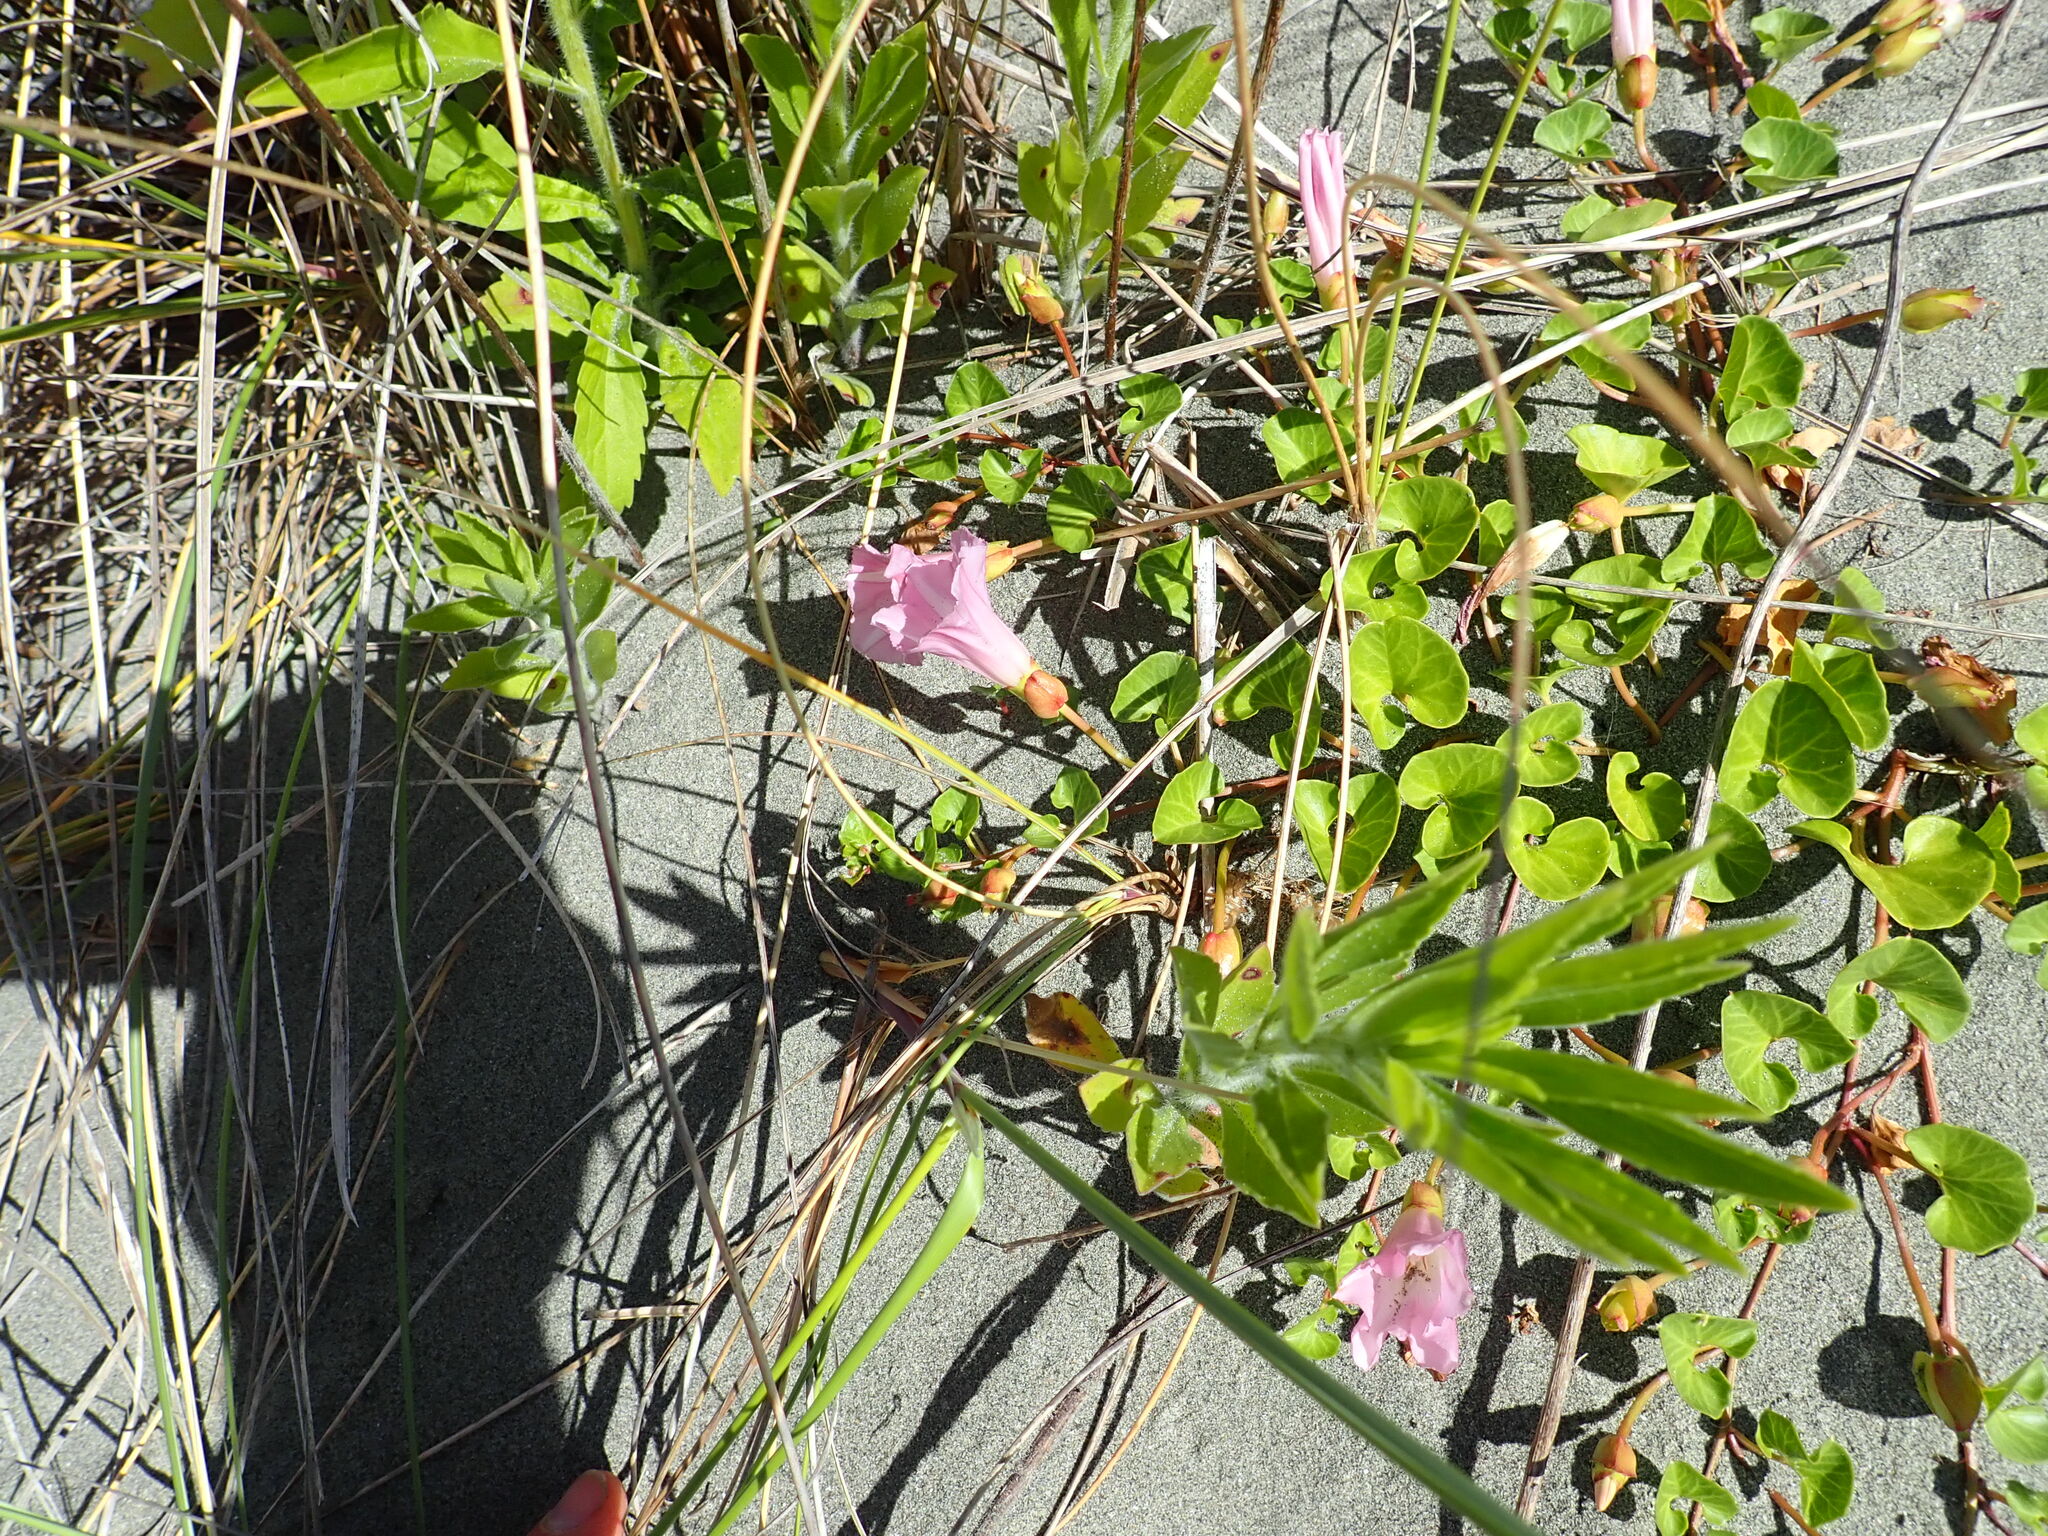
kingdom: Plantae
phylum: Tracheophyta
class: Magnoliopsida
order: Solanales
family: Convolvulaceae
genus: Calystegia
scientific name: Calystegia soldanella
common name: Sea bindweed
